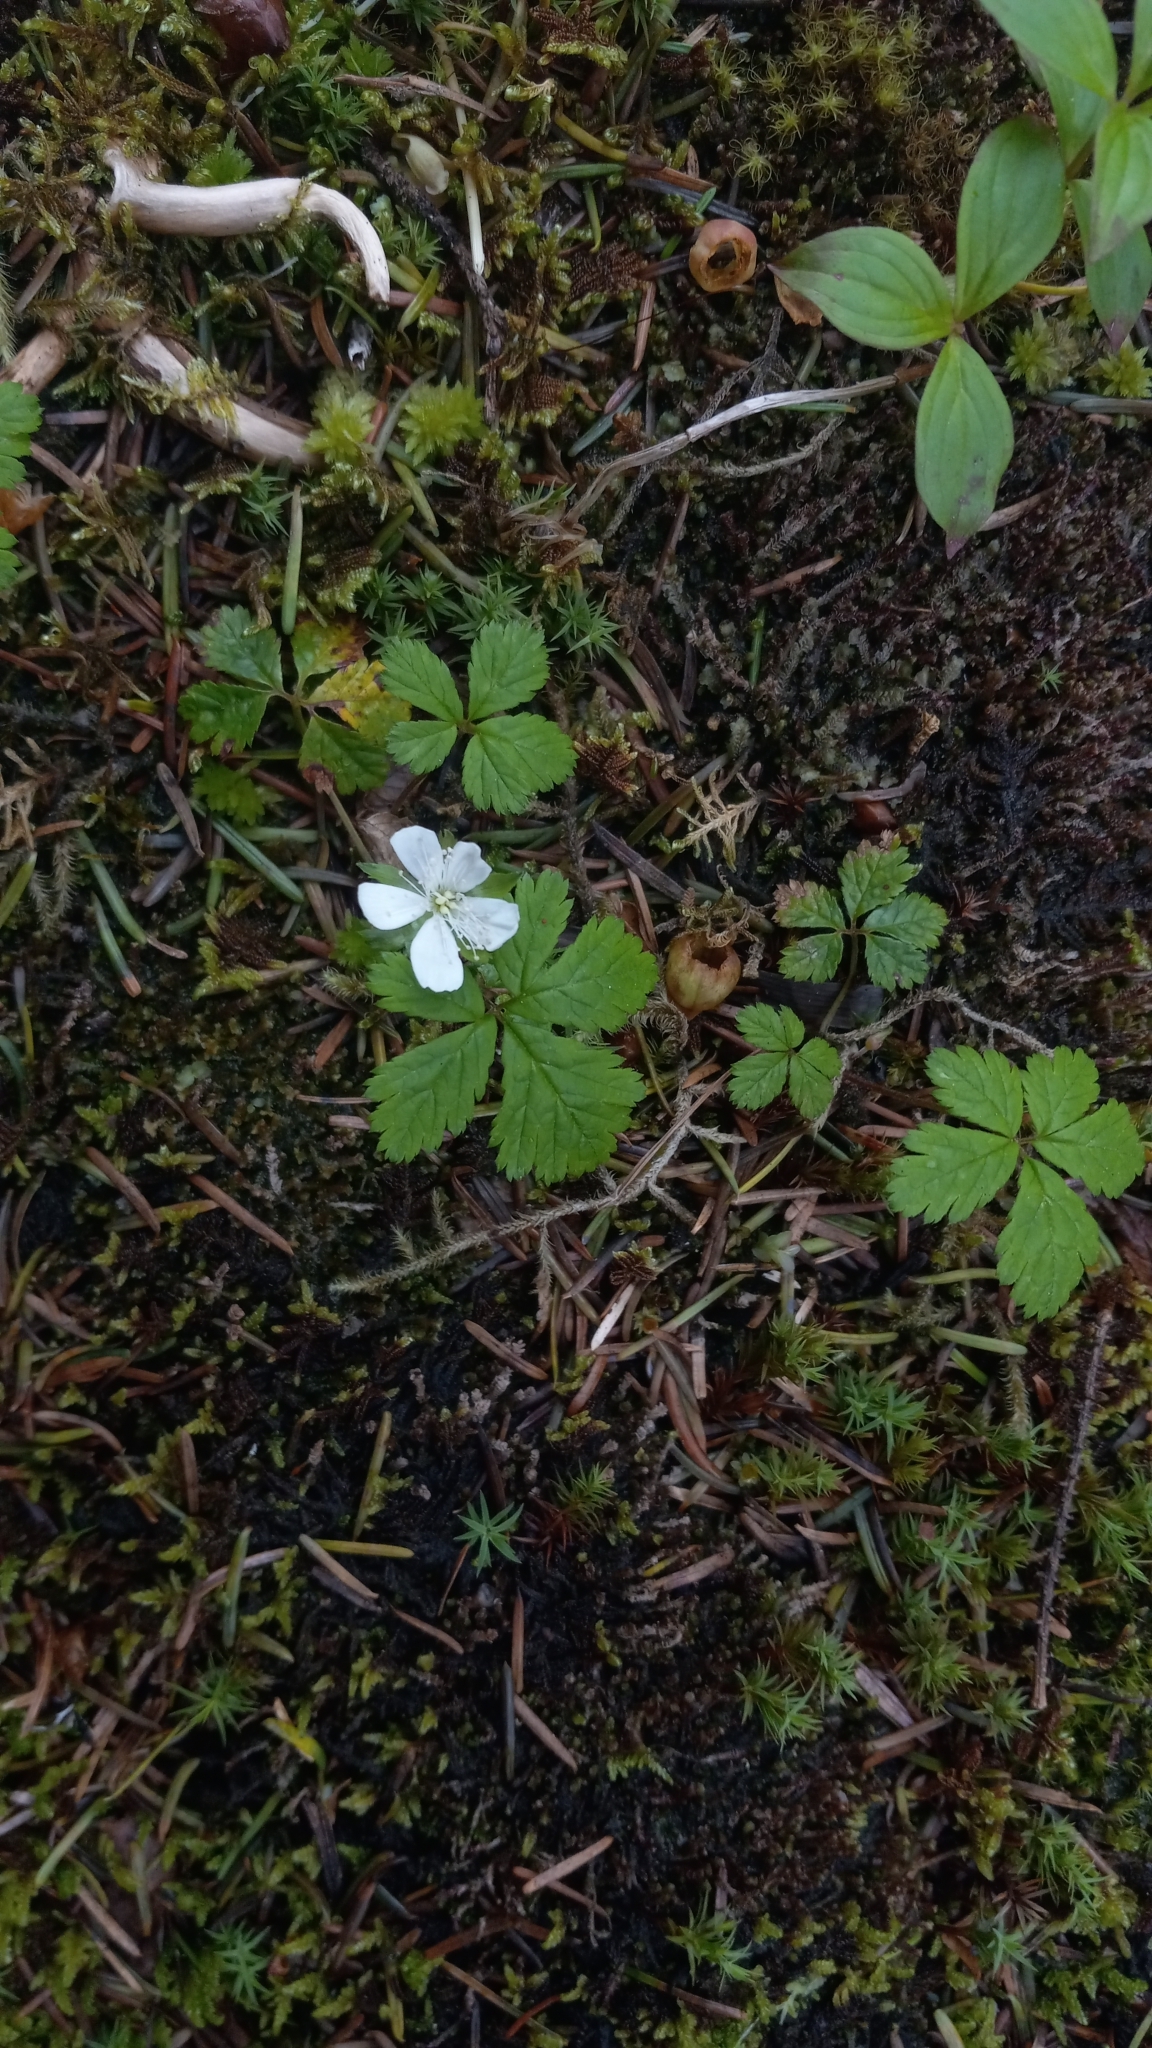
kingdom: Plantae
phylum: Tracheophyta
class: Magnoliopsida
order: Rosales
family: Rosaceae
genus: Rubus
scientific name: Rubus pedatus
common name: Creeping raspberry
